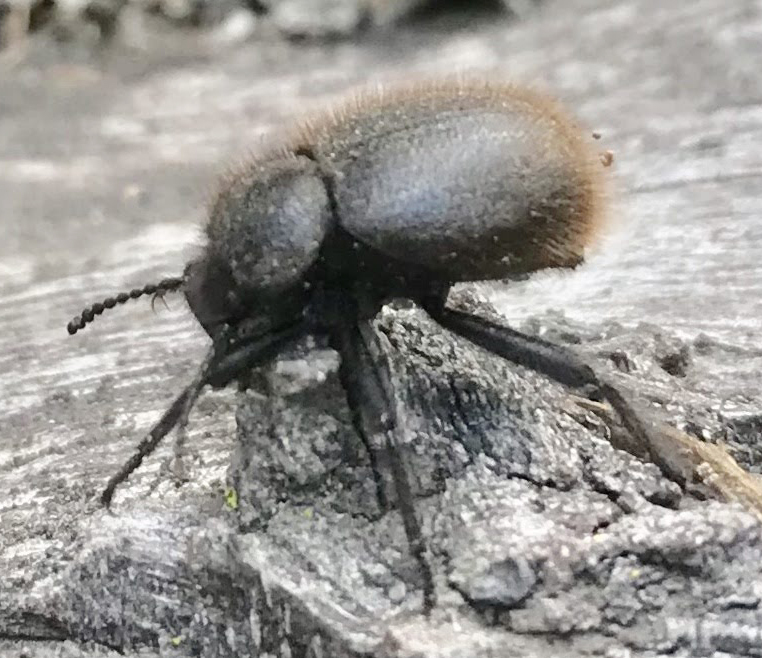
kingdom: Animalia
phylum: Arthropoda
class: Insecta
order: Coleoptera
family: Tenebrionidae
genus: Eleodes
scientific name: Eleodes osculans
